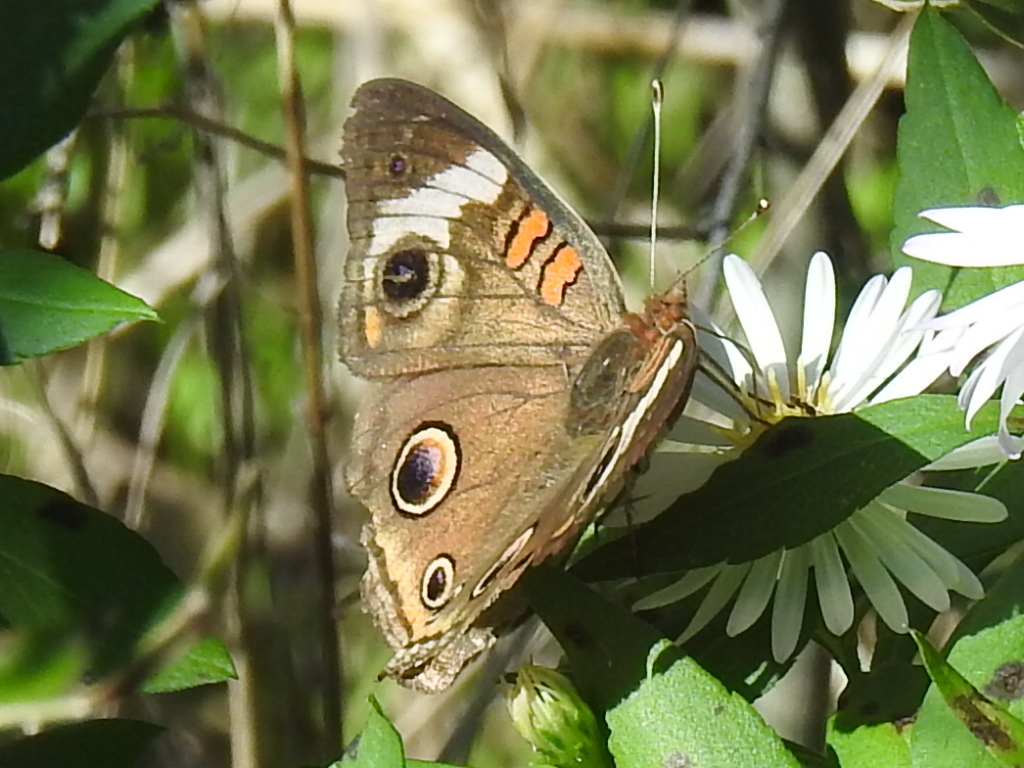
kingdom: Animalia
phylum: Arthropoda
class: Insecta
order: Lepidoptera
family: Nymphalidae
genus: Junonia
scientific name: Junonia coenia
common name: Common buckeye
